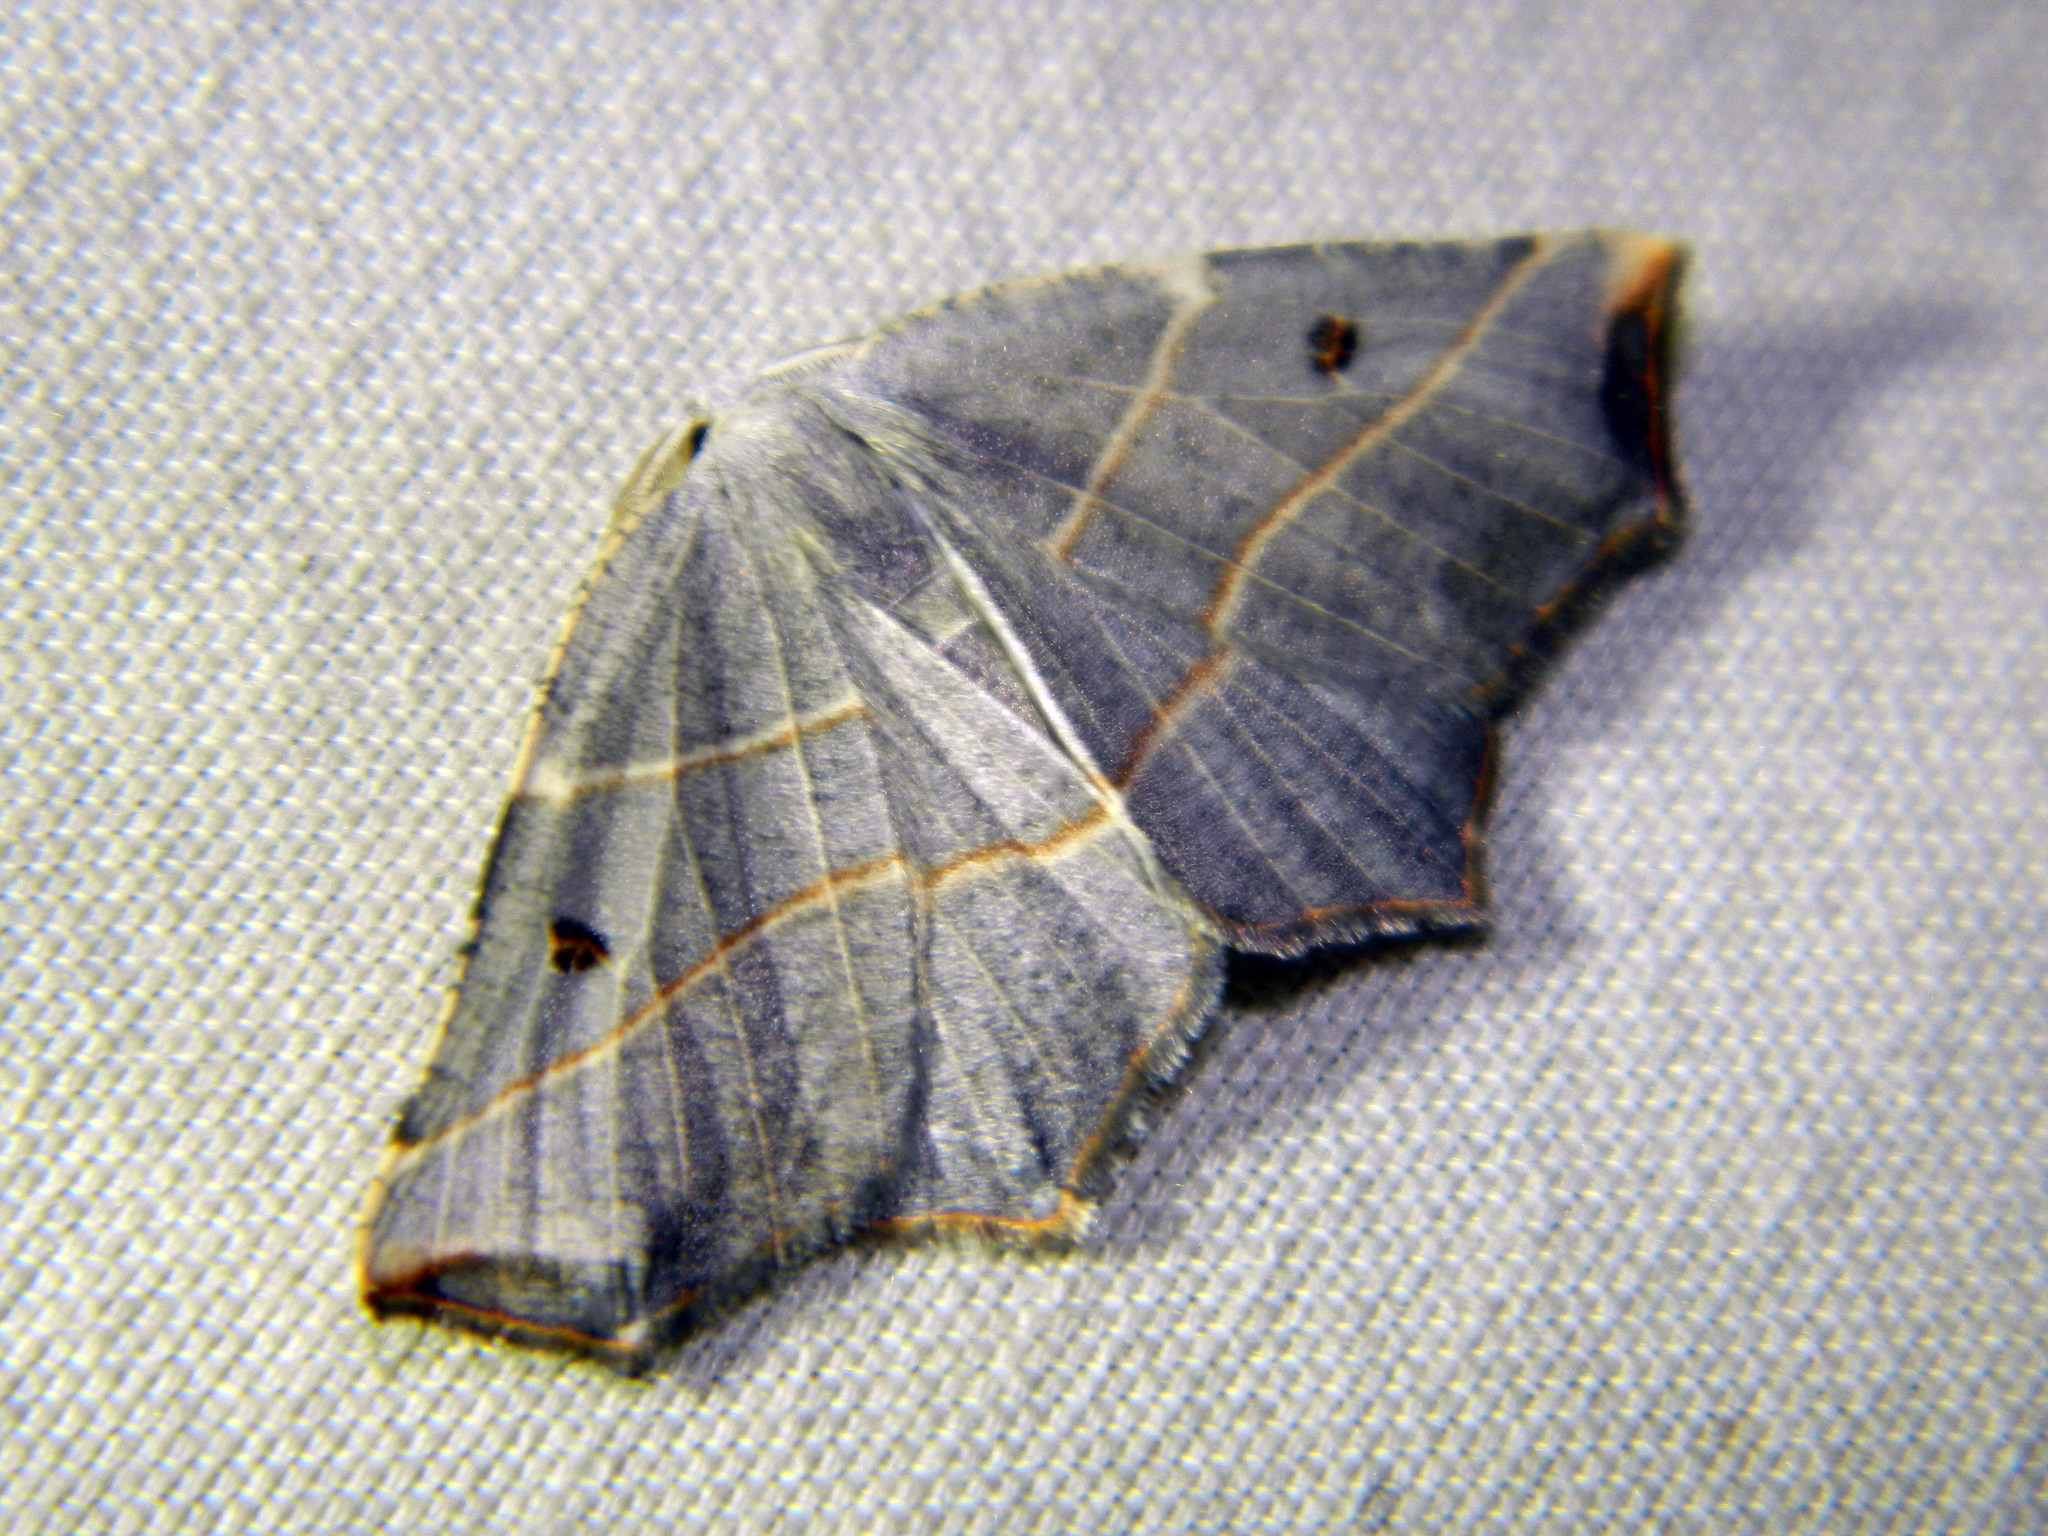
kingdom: Animalia
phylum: Arthropoda
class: Insecta
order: Lepidoptera
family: Geometridae
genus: Metanema
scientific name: Metanema inatomaria
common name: Pale metanema
